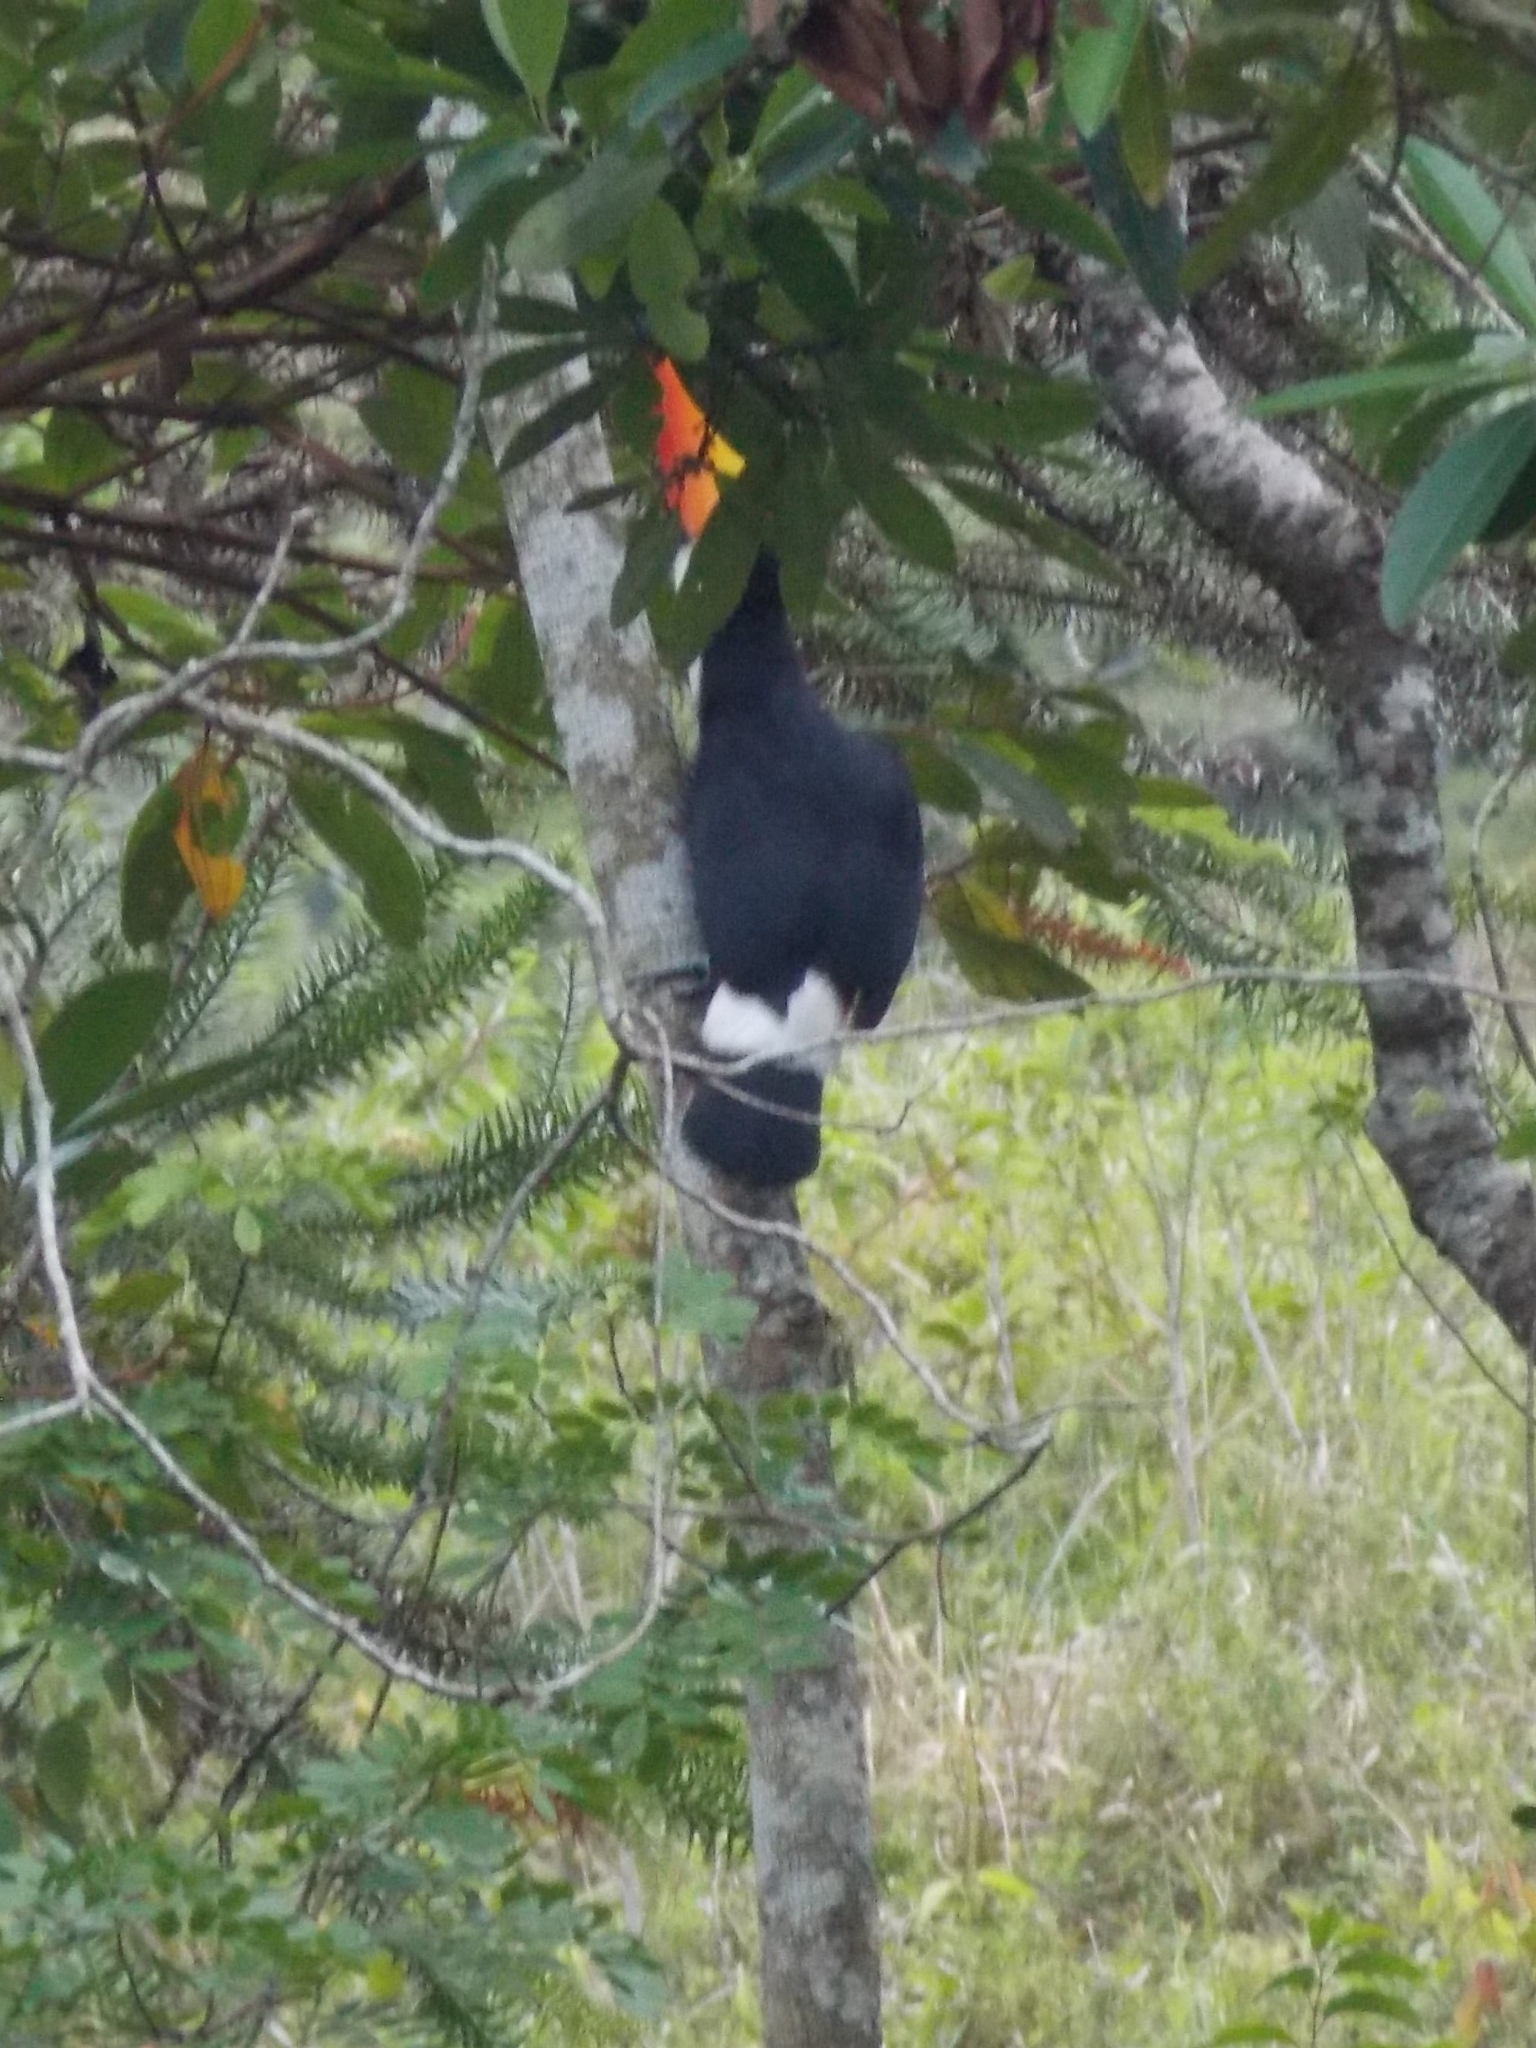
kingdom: Animalia
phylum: Chordata
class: Aves
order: Piciformes
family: Ramphastidae
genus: Ramphastos
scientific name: Ramphastos toco
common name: Toco toucan
